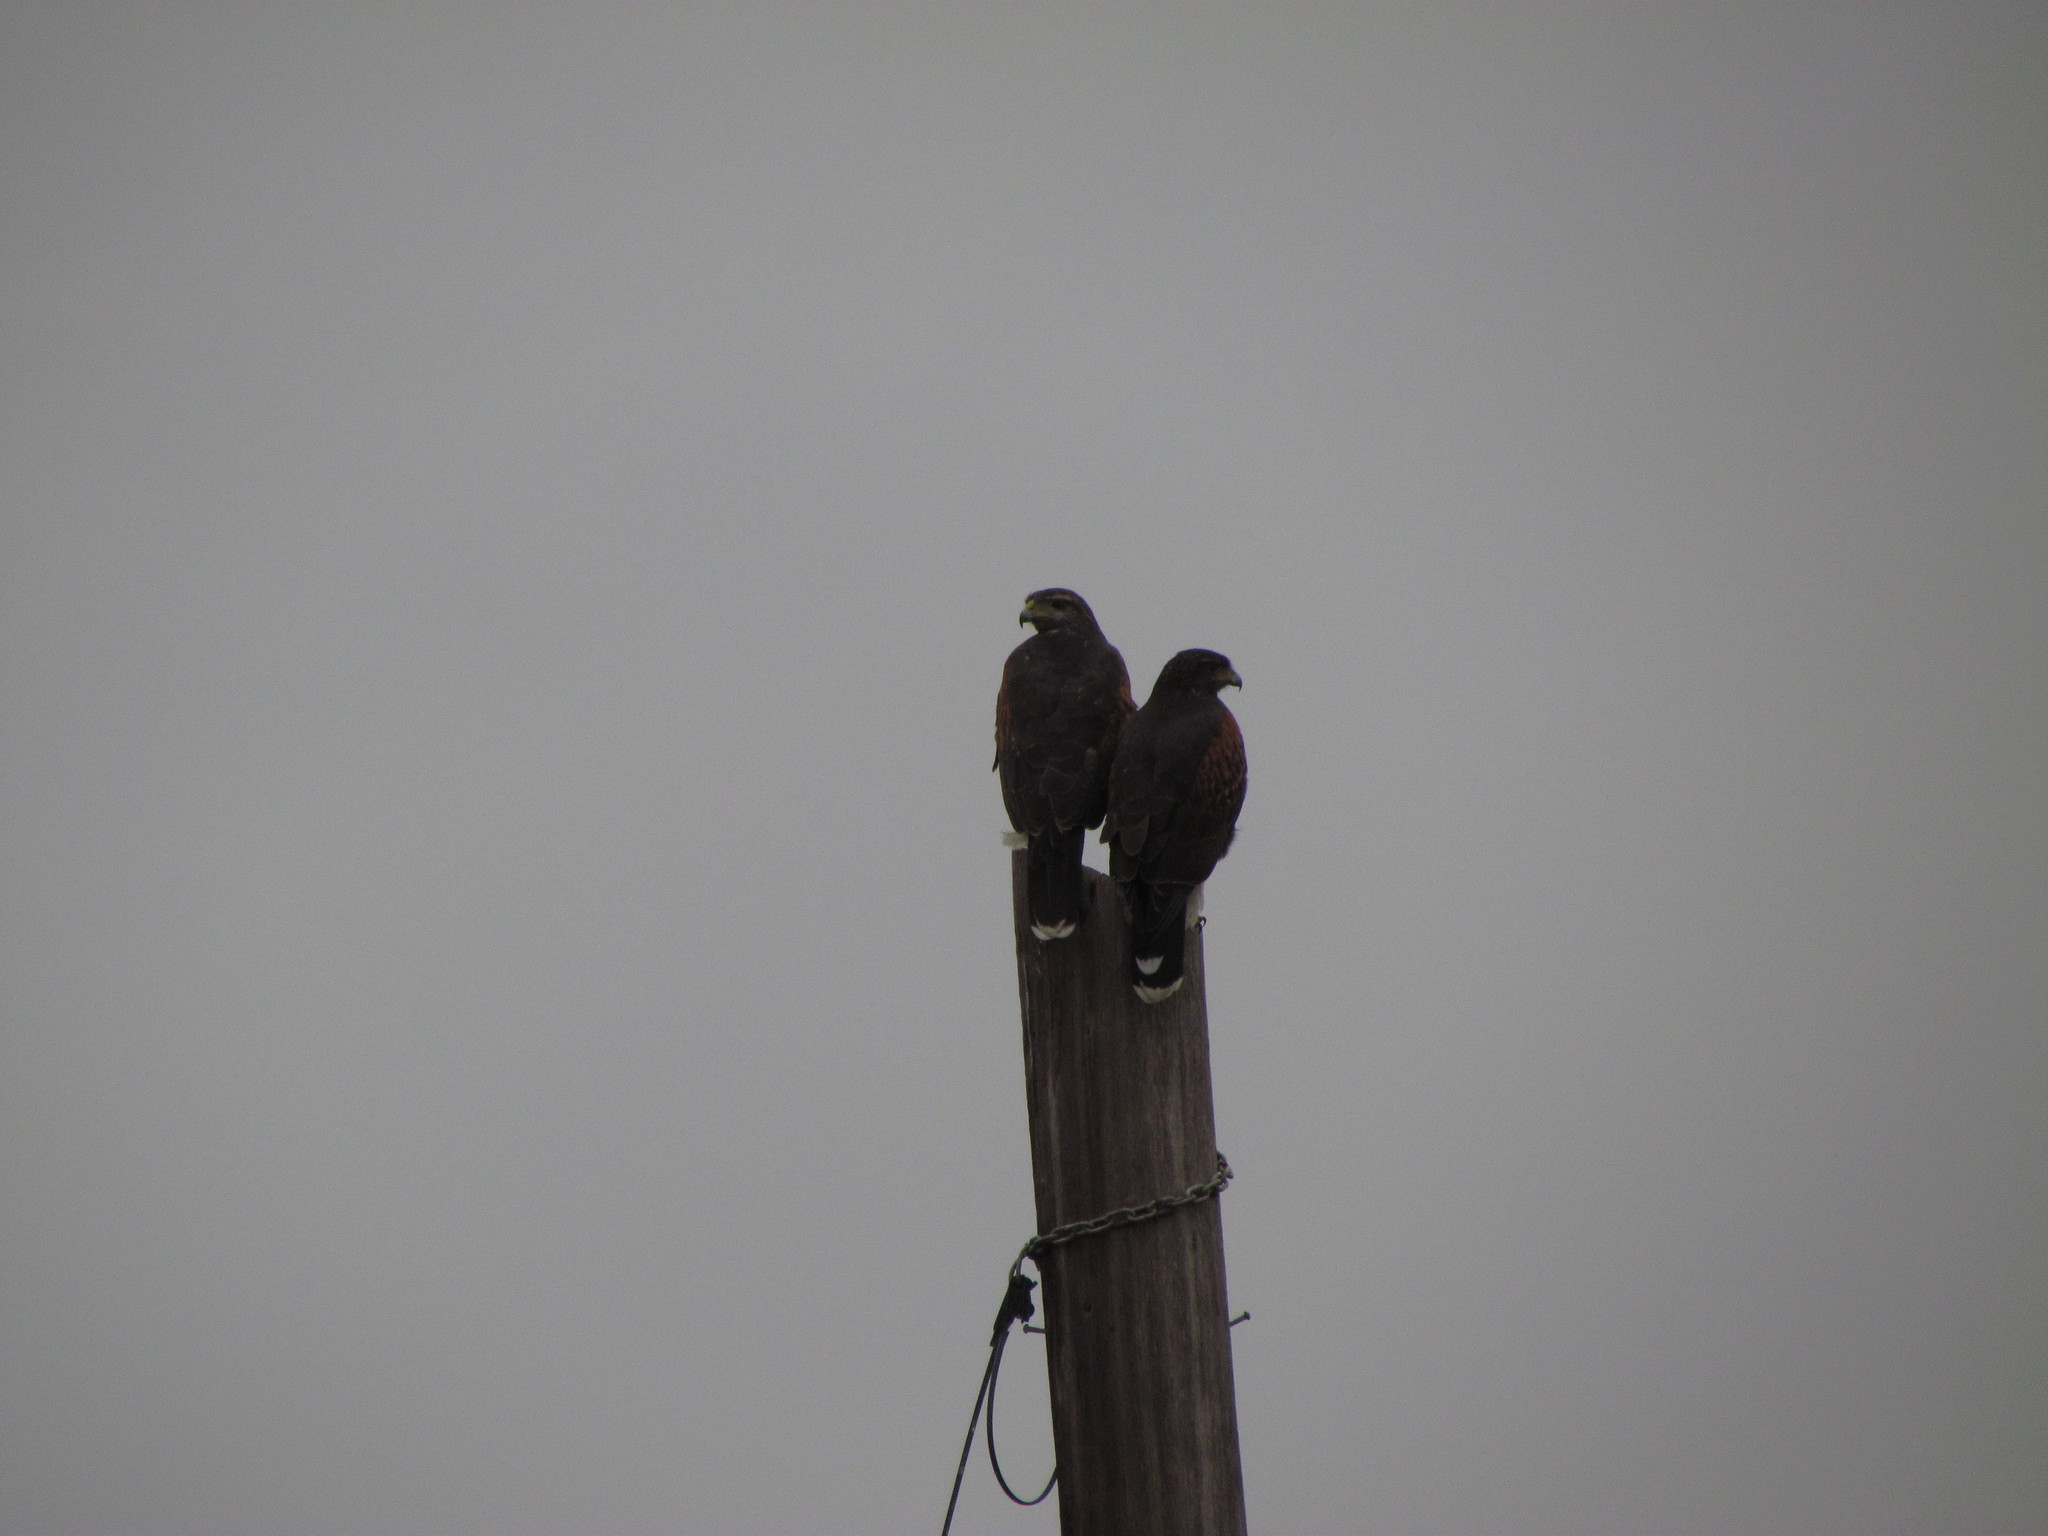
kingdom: Animalia
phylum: Chordata
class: Aves
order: Accipitriformes
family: Accipitridae
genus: Parabuteo
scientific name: Parabuteo unicinctus
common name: Harris's hawk
